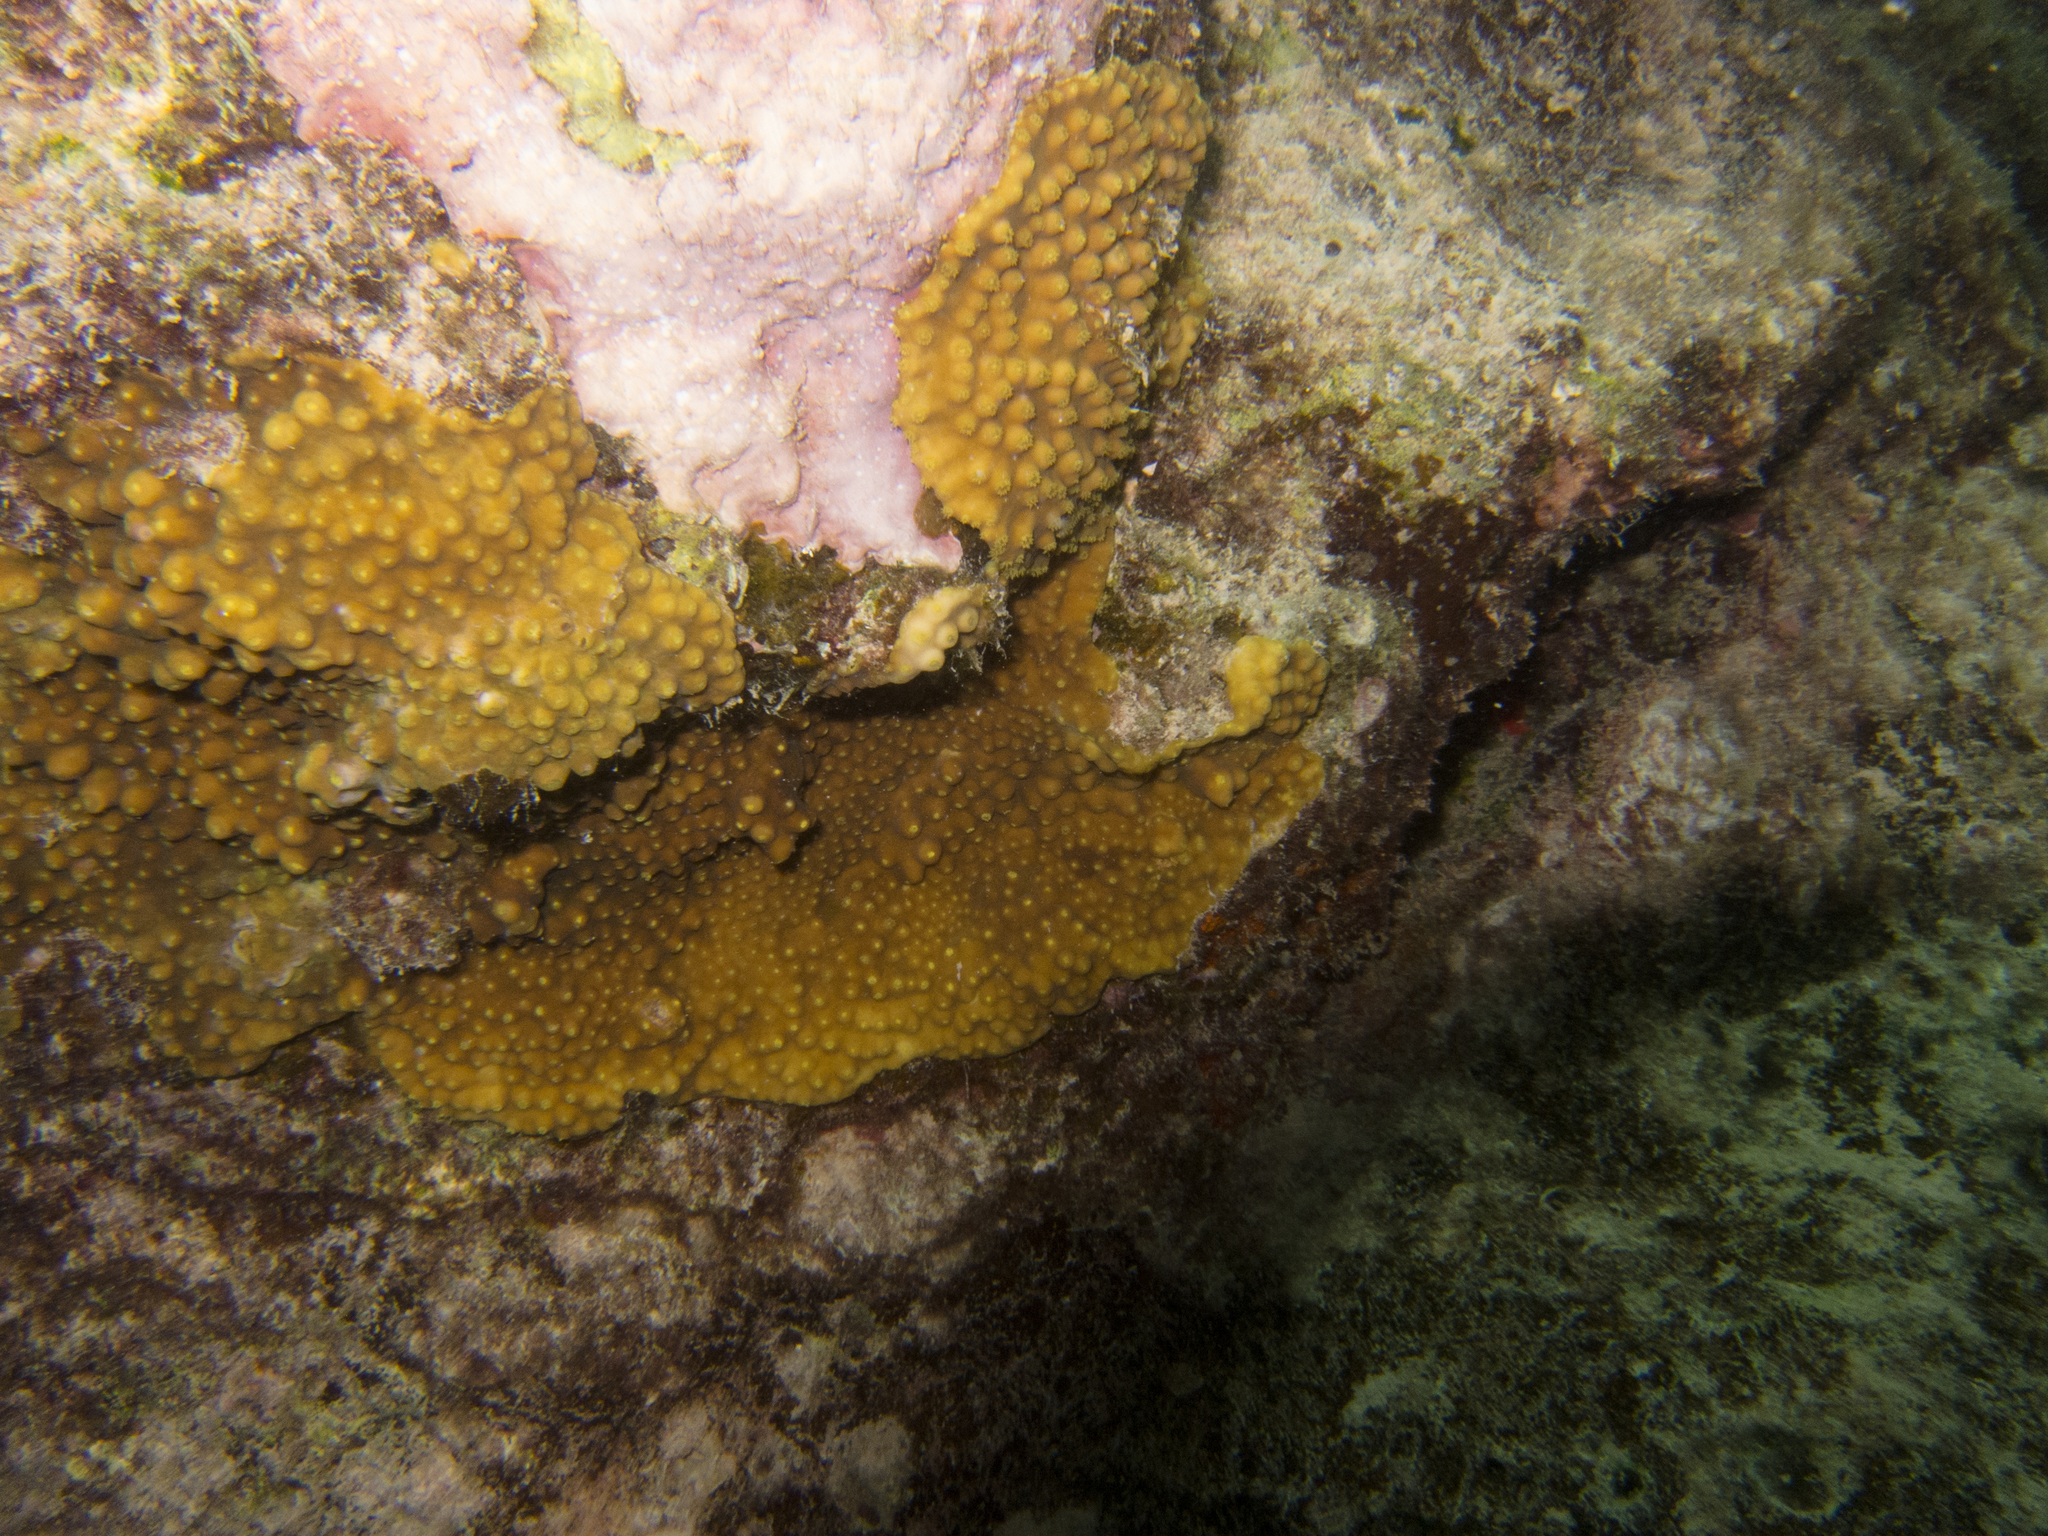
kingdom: Animalia
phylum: Cnidaria
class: Anthozoa
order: Scleractinia
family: Dendrophylliidae
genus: Turbinaria
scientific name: Turbinaria stellulata
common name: Disc coral
